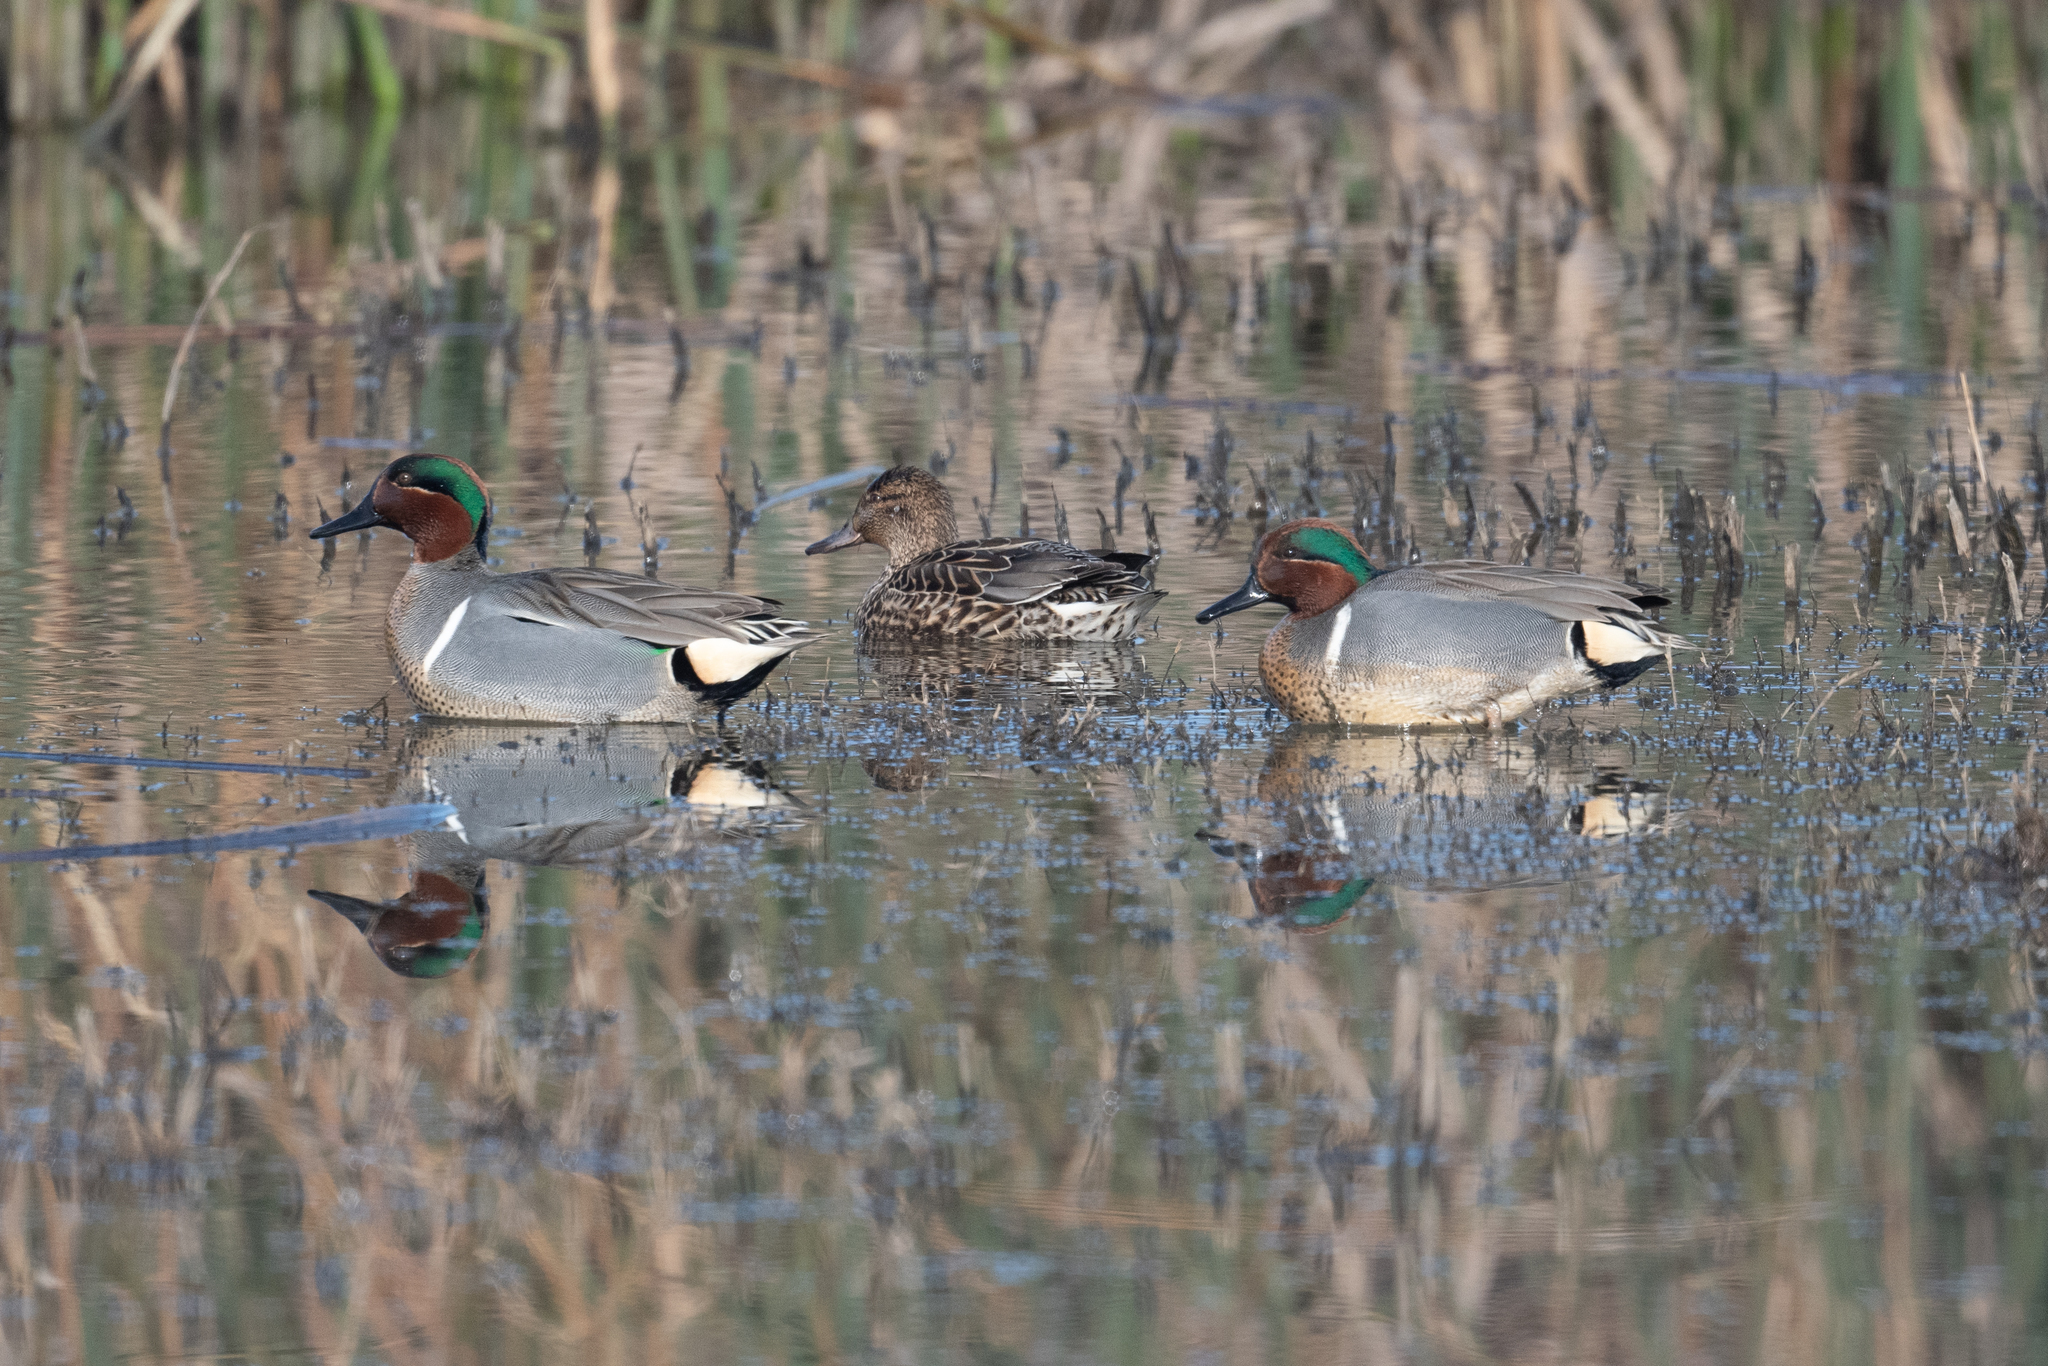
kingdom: Animalia
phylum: Chordata
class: Aves
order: Anseriformes
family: Anatidae
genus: Anas
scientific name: Anas crecca
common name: Eurasian teal
